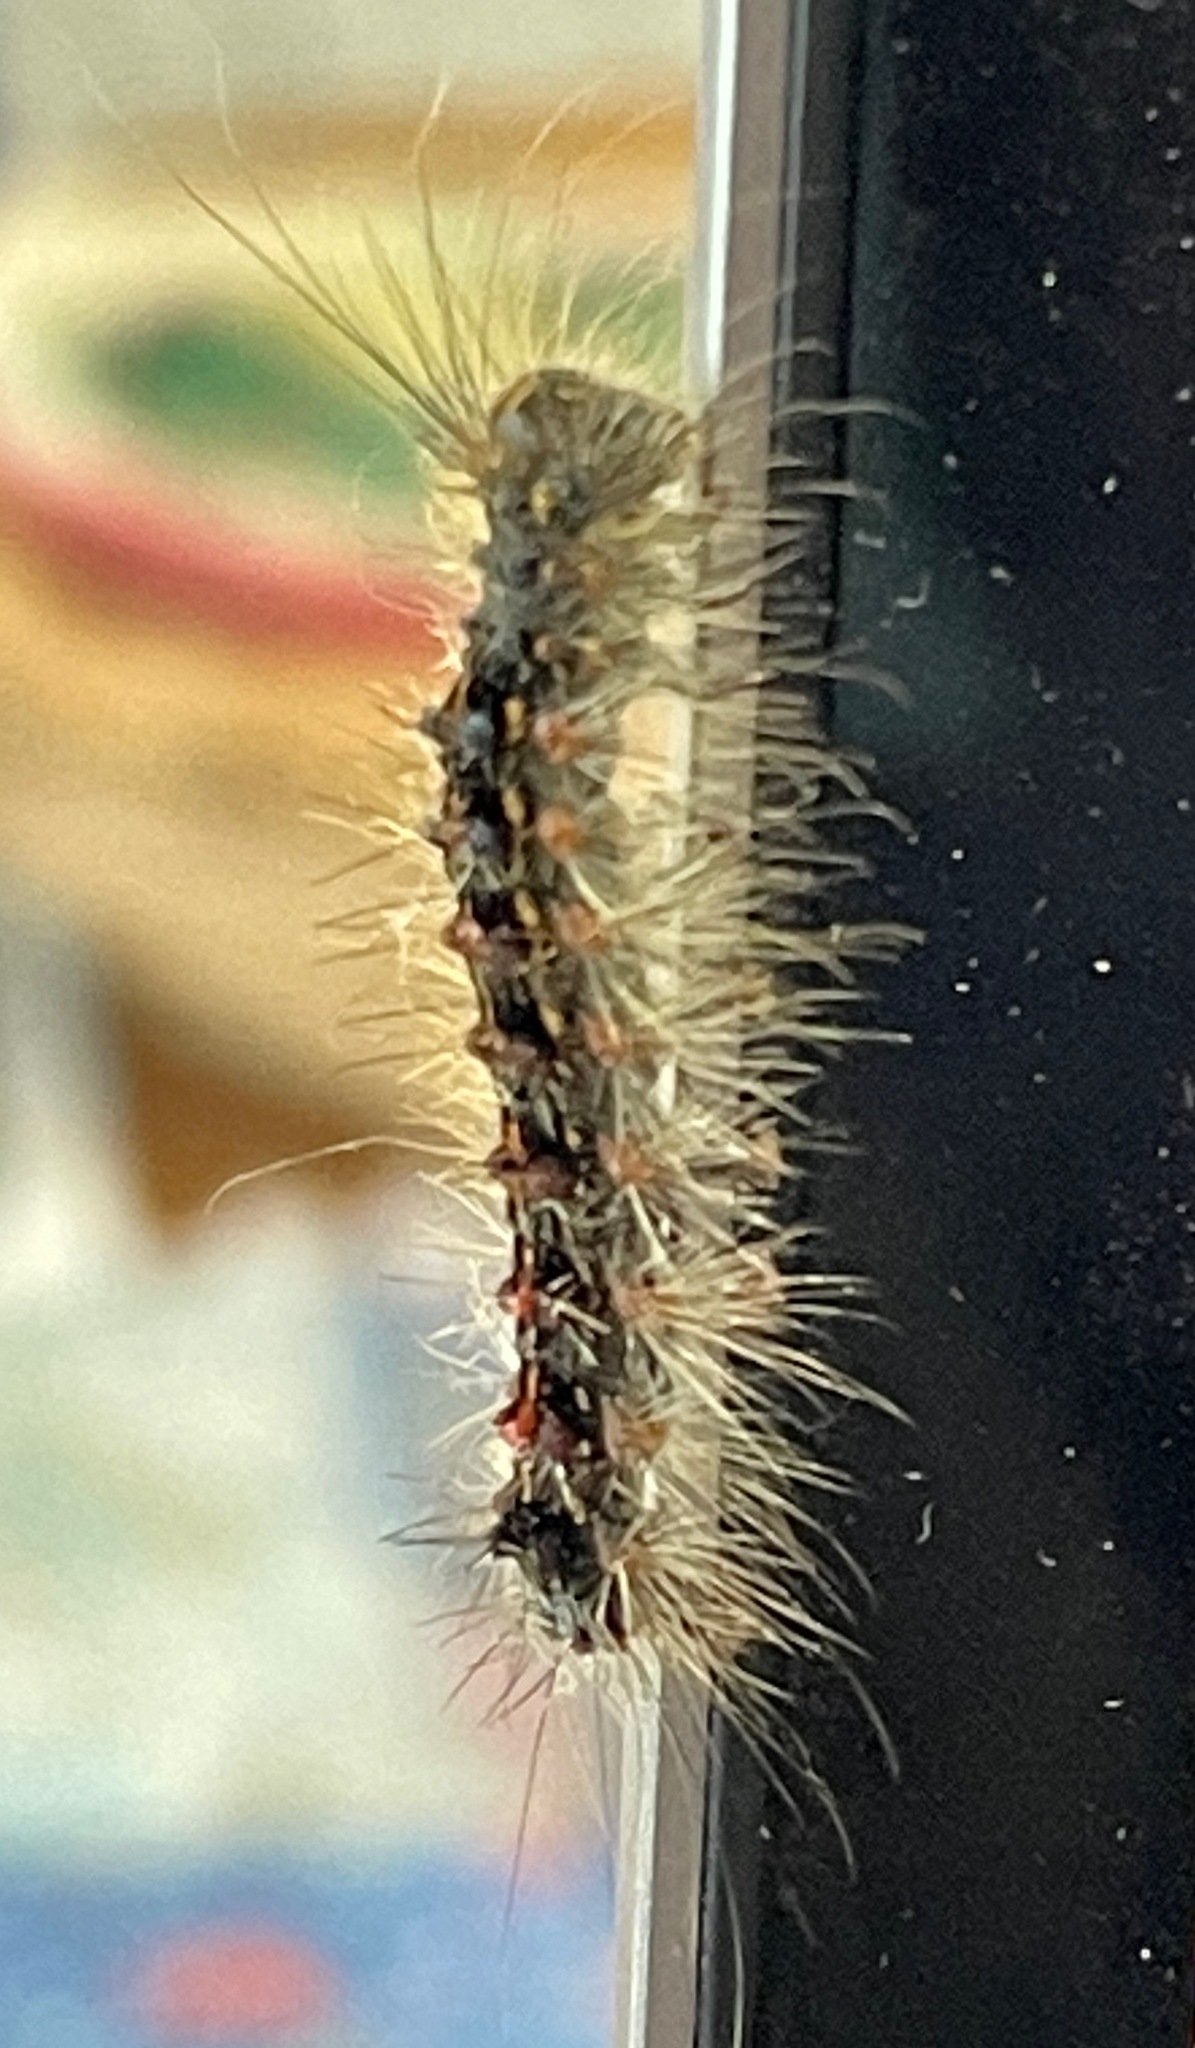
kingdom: Animalia
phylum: Arthropoda
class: Insecta
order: Lepidoptera
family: Erebidae
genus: Lymantria
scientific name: Lymantria dispar
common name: Gypsy moth
